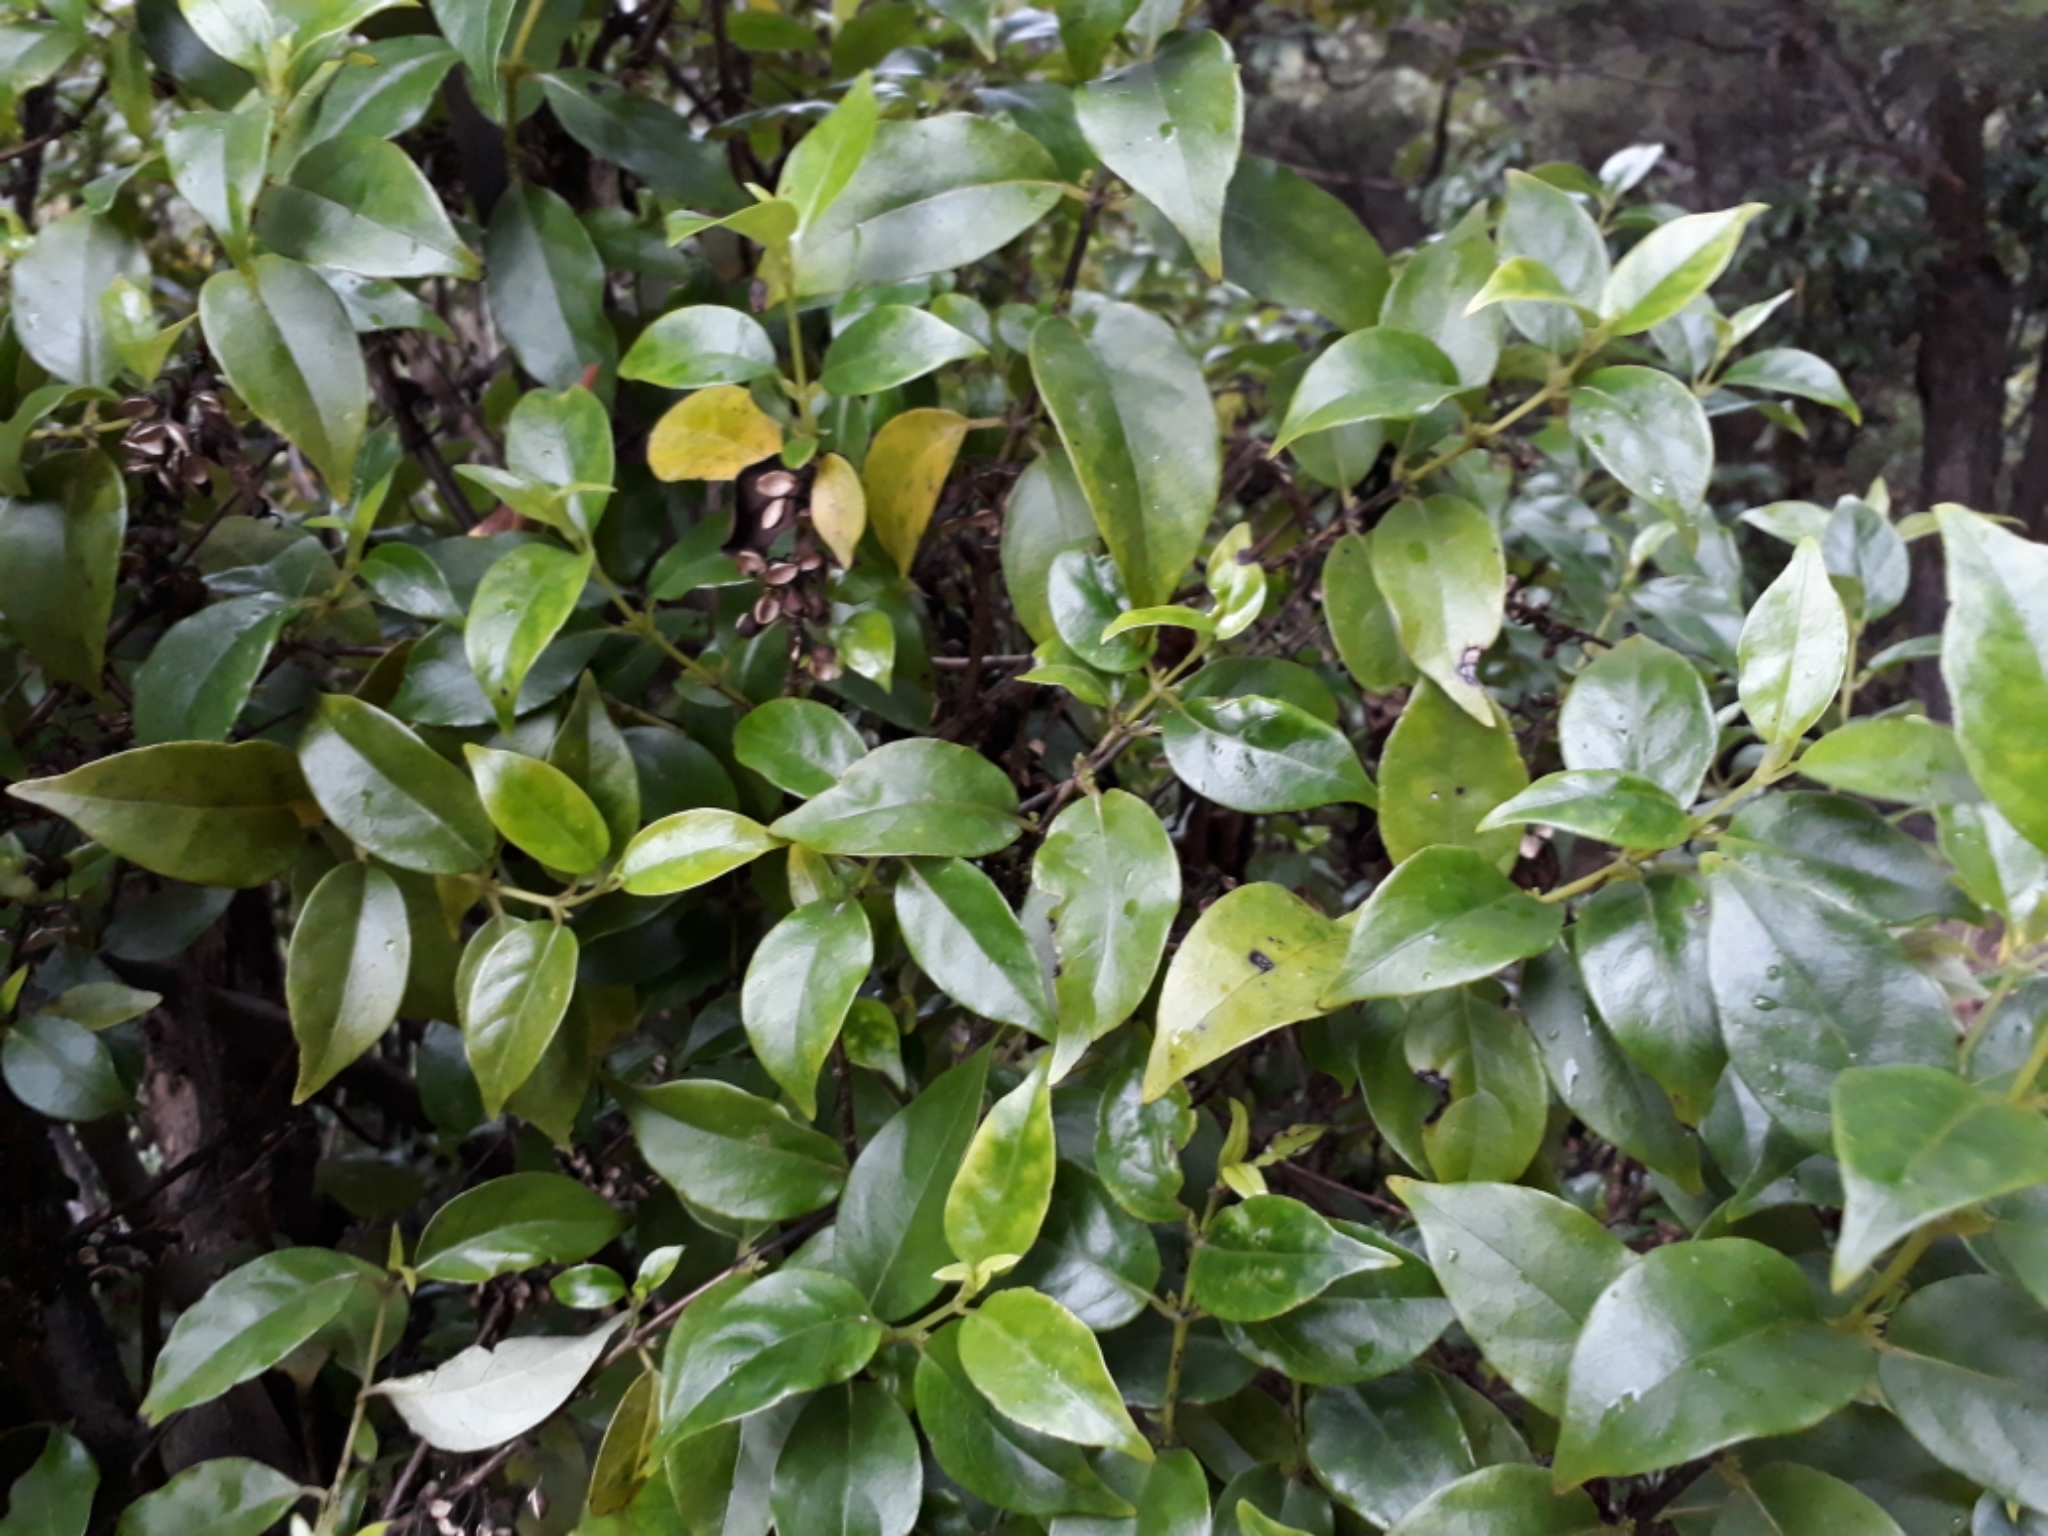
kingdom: Plantae
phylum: Tracheophyta
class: Magnoliopsida
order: Gentianales
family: Loganiaceae
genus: Geniostoma
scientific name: Geniostoma ligustrifolium
